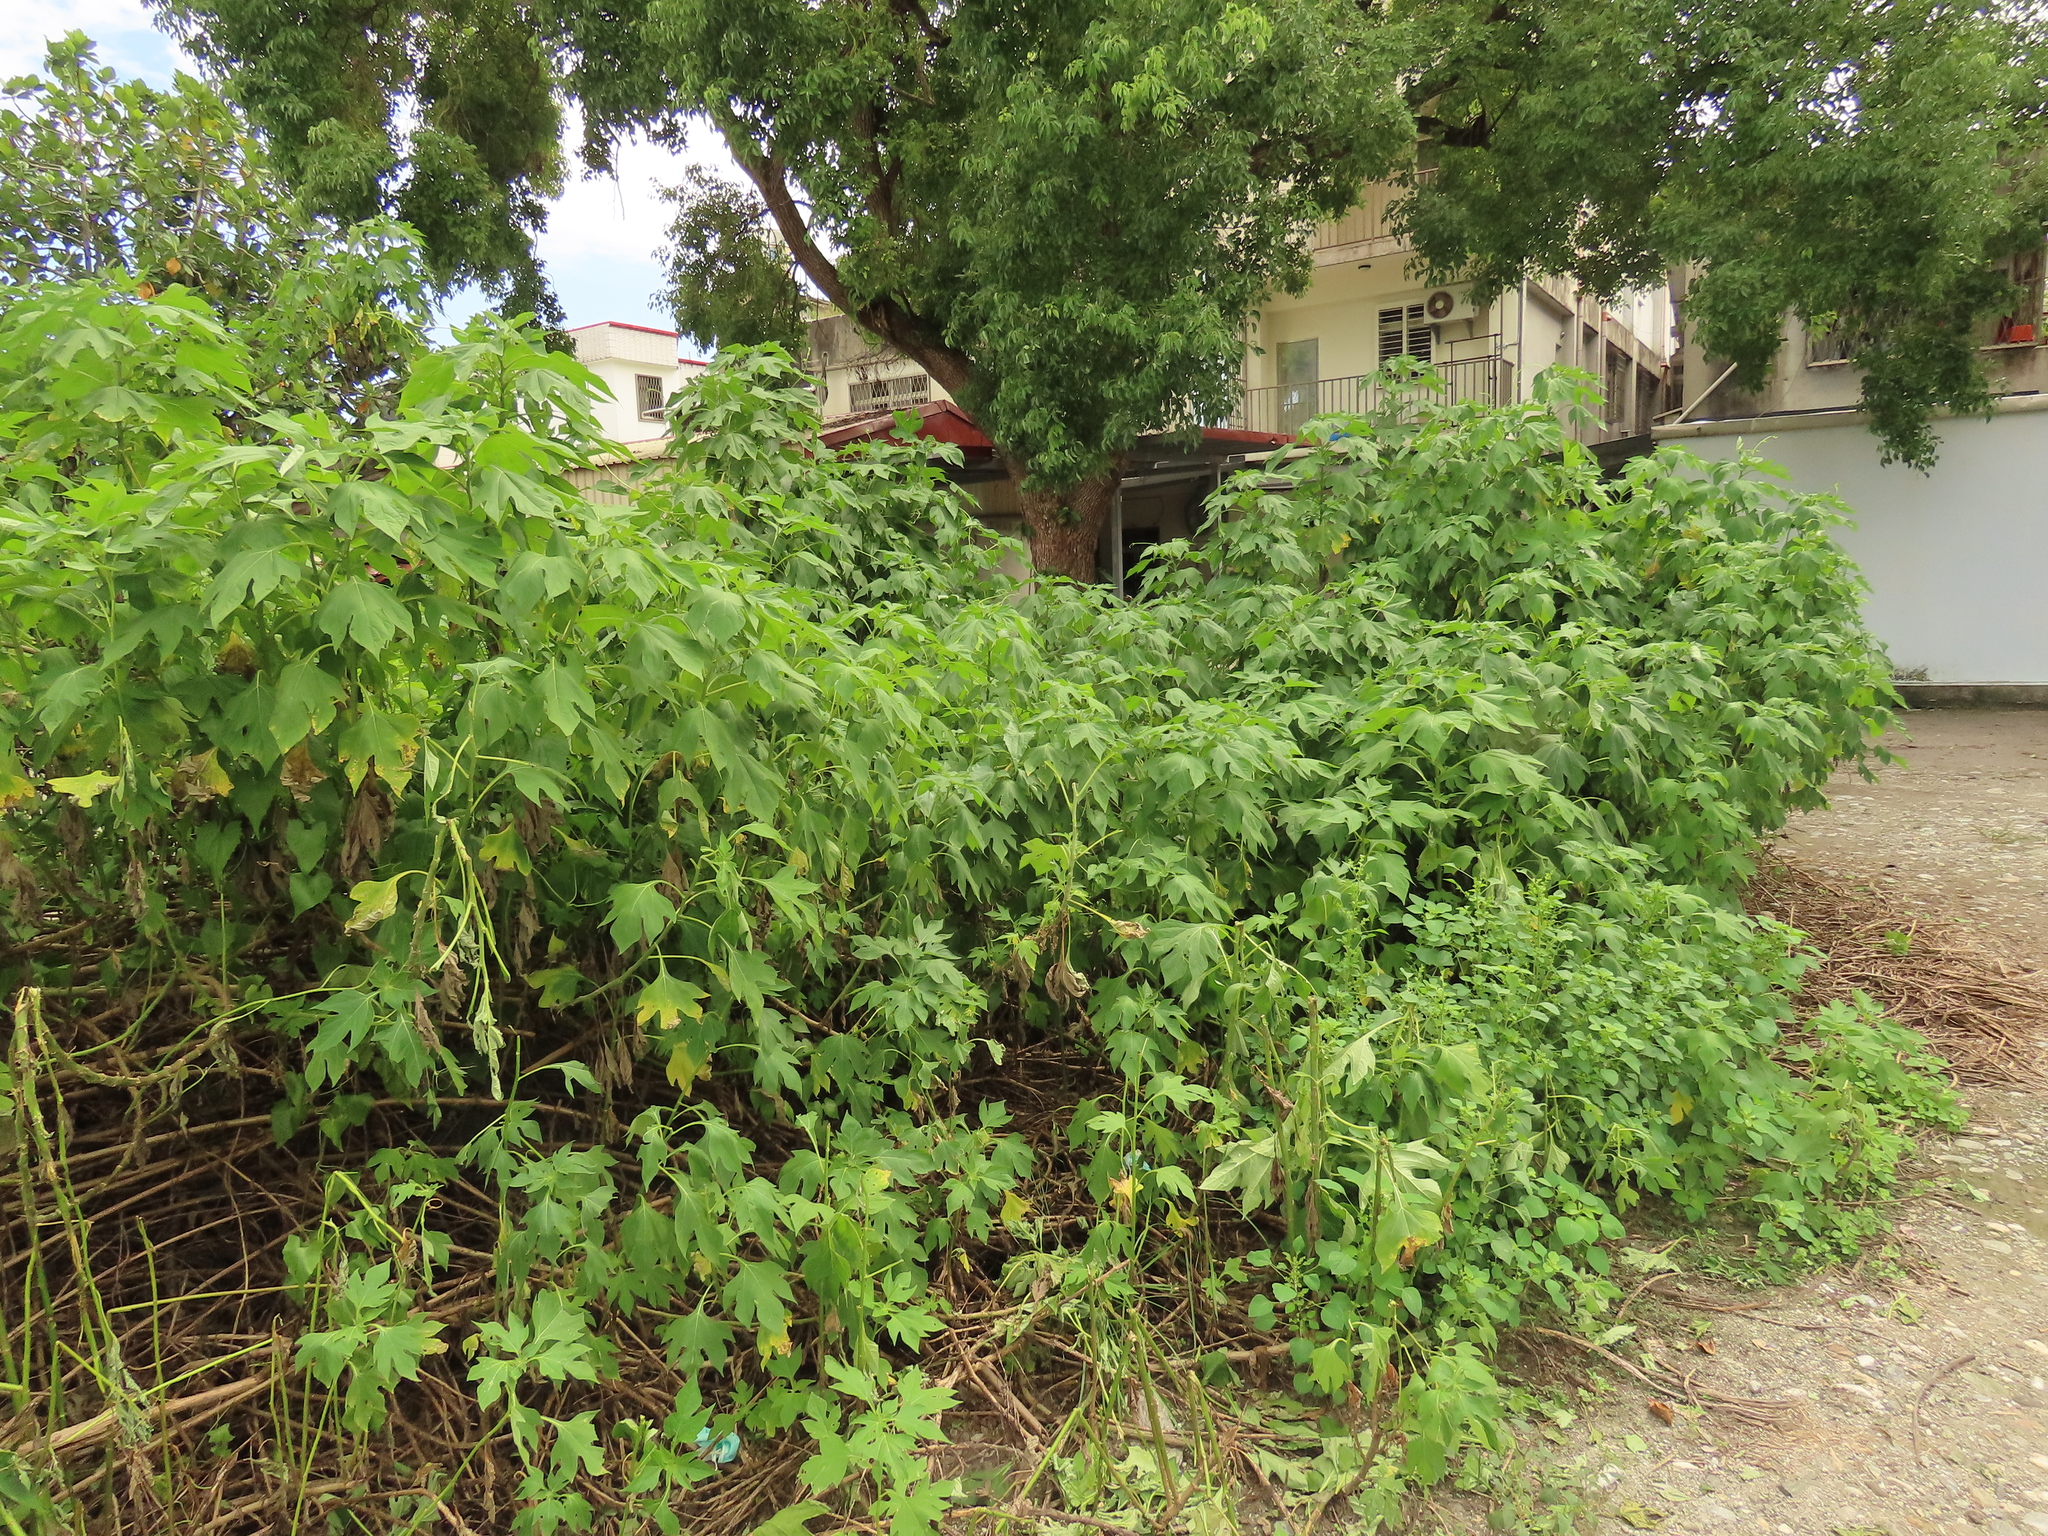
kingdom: Plantae
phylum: Tracheophyta
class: Magnoliopsida
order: Asterales
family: Asteraceae
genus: Tithonia
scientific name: Tithonia diversifolia
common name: Tree marigold
